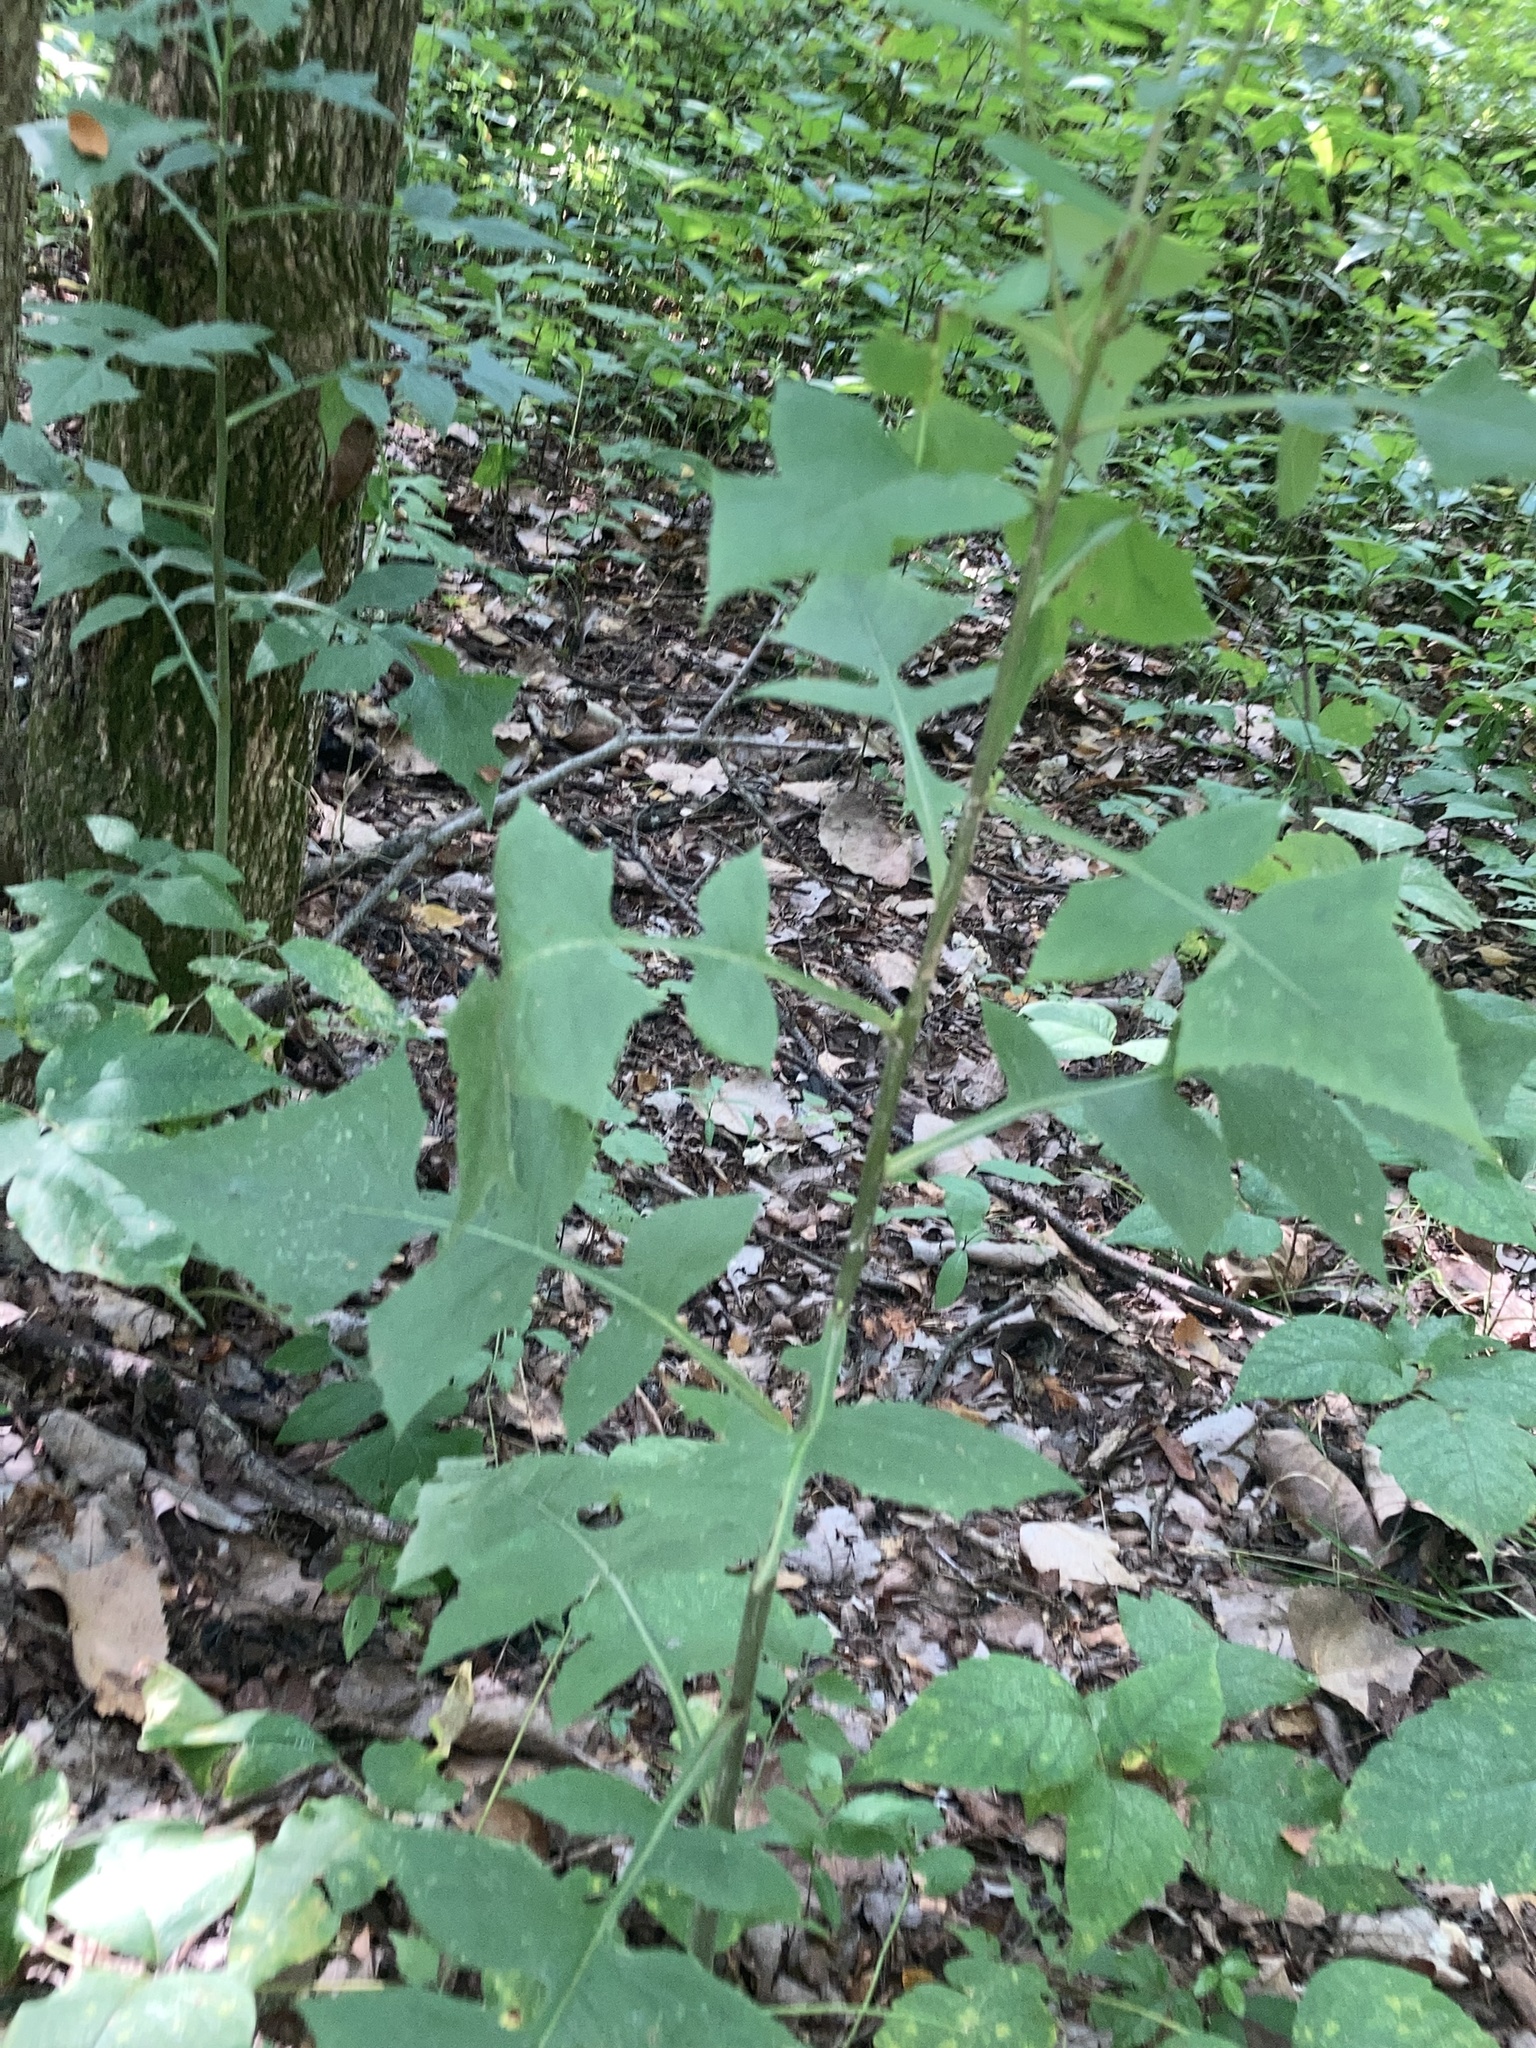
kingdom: Plantae
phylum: Tracheophyta
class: Magnoliopsida
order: Asterales
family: Asteraceae
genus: Lactuca
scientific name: Lactuca floridana
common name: Woodland lettuce
